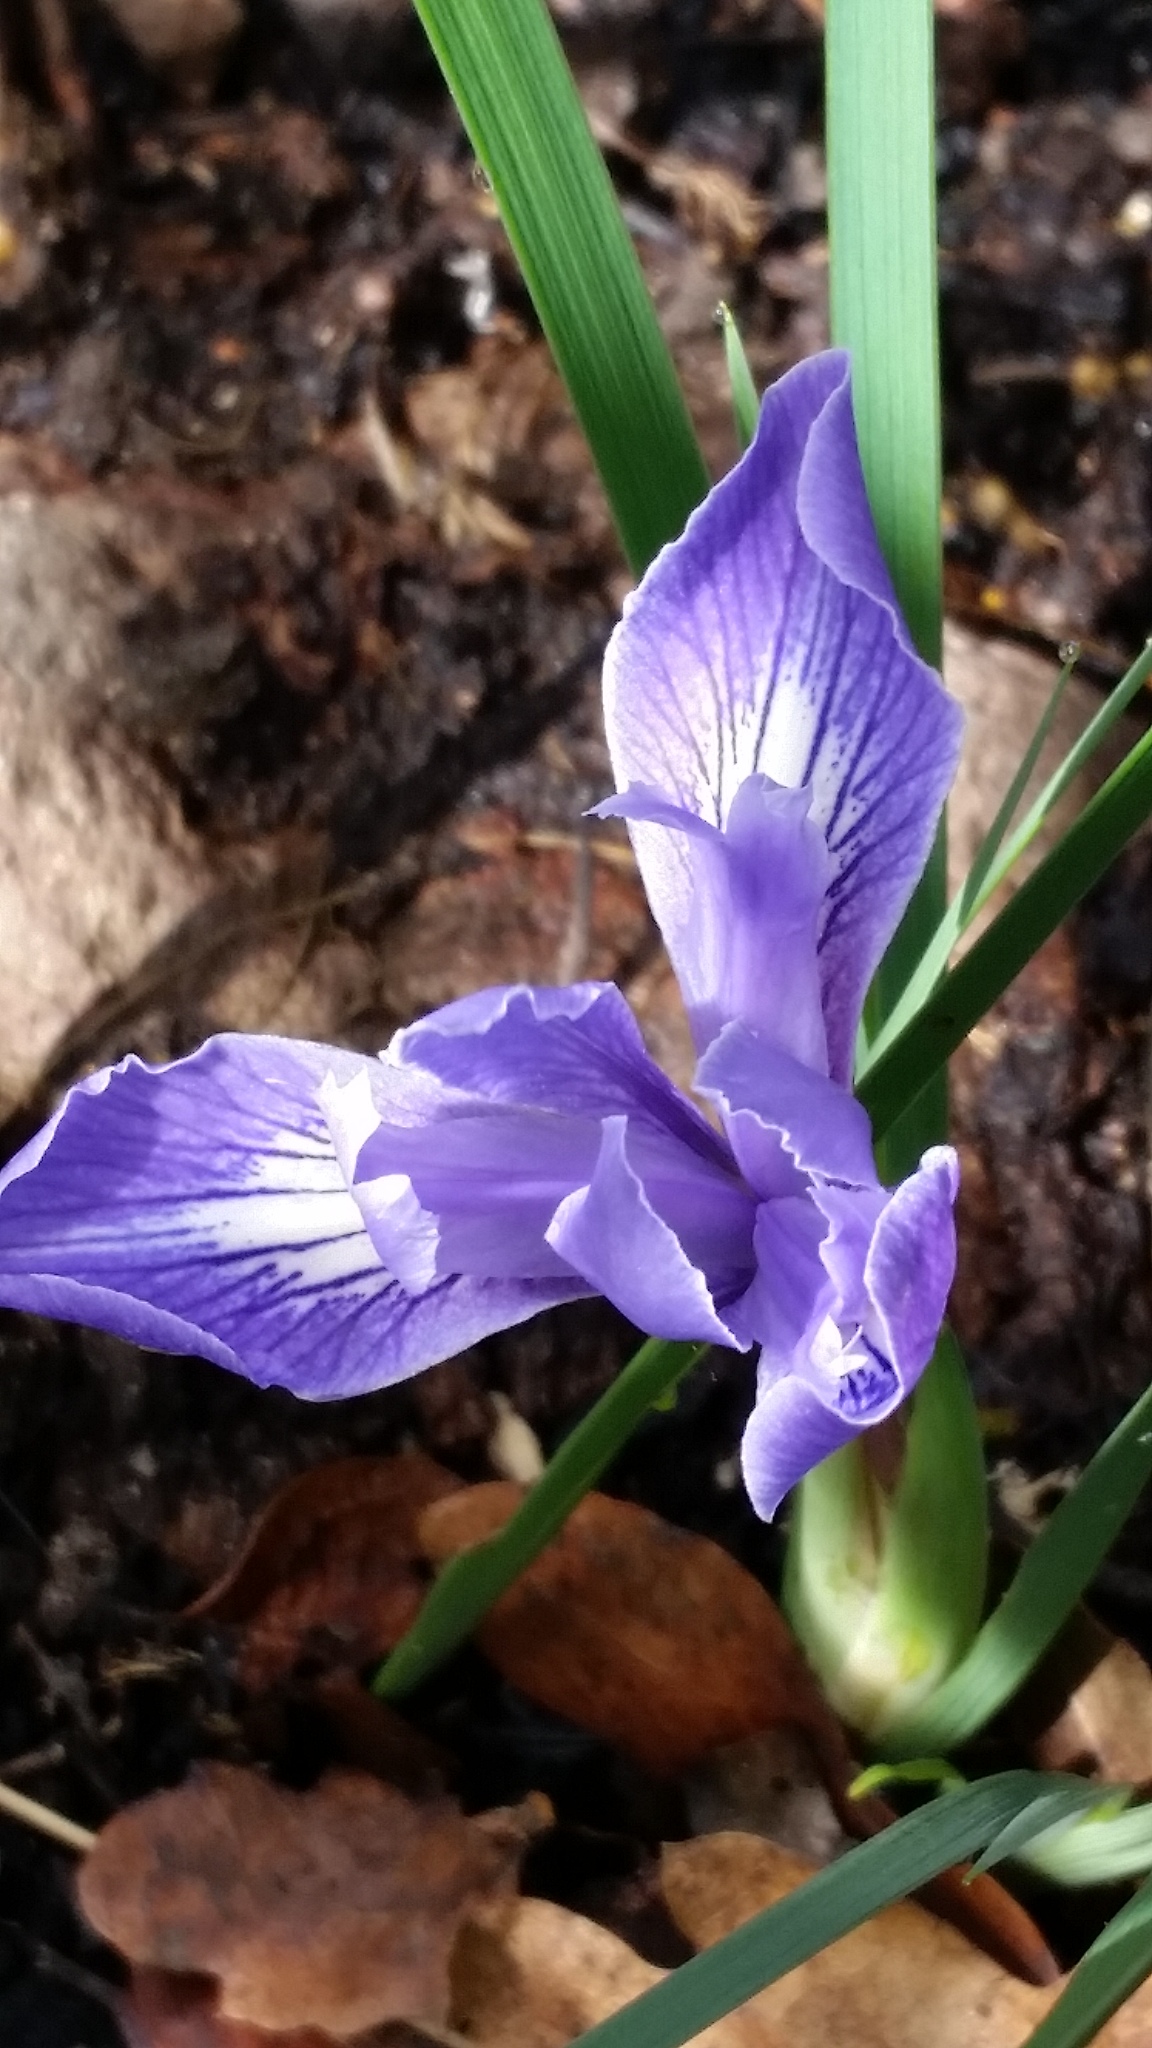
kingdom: Plantae
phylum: Tracheophyta
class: Liliopsida
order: Asparagales
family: Iridaceae
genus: Iris
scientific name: Iris macrosiphon
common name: Ground iris
